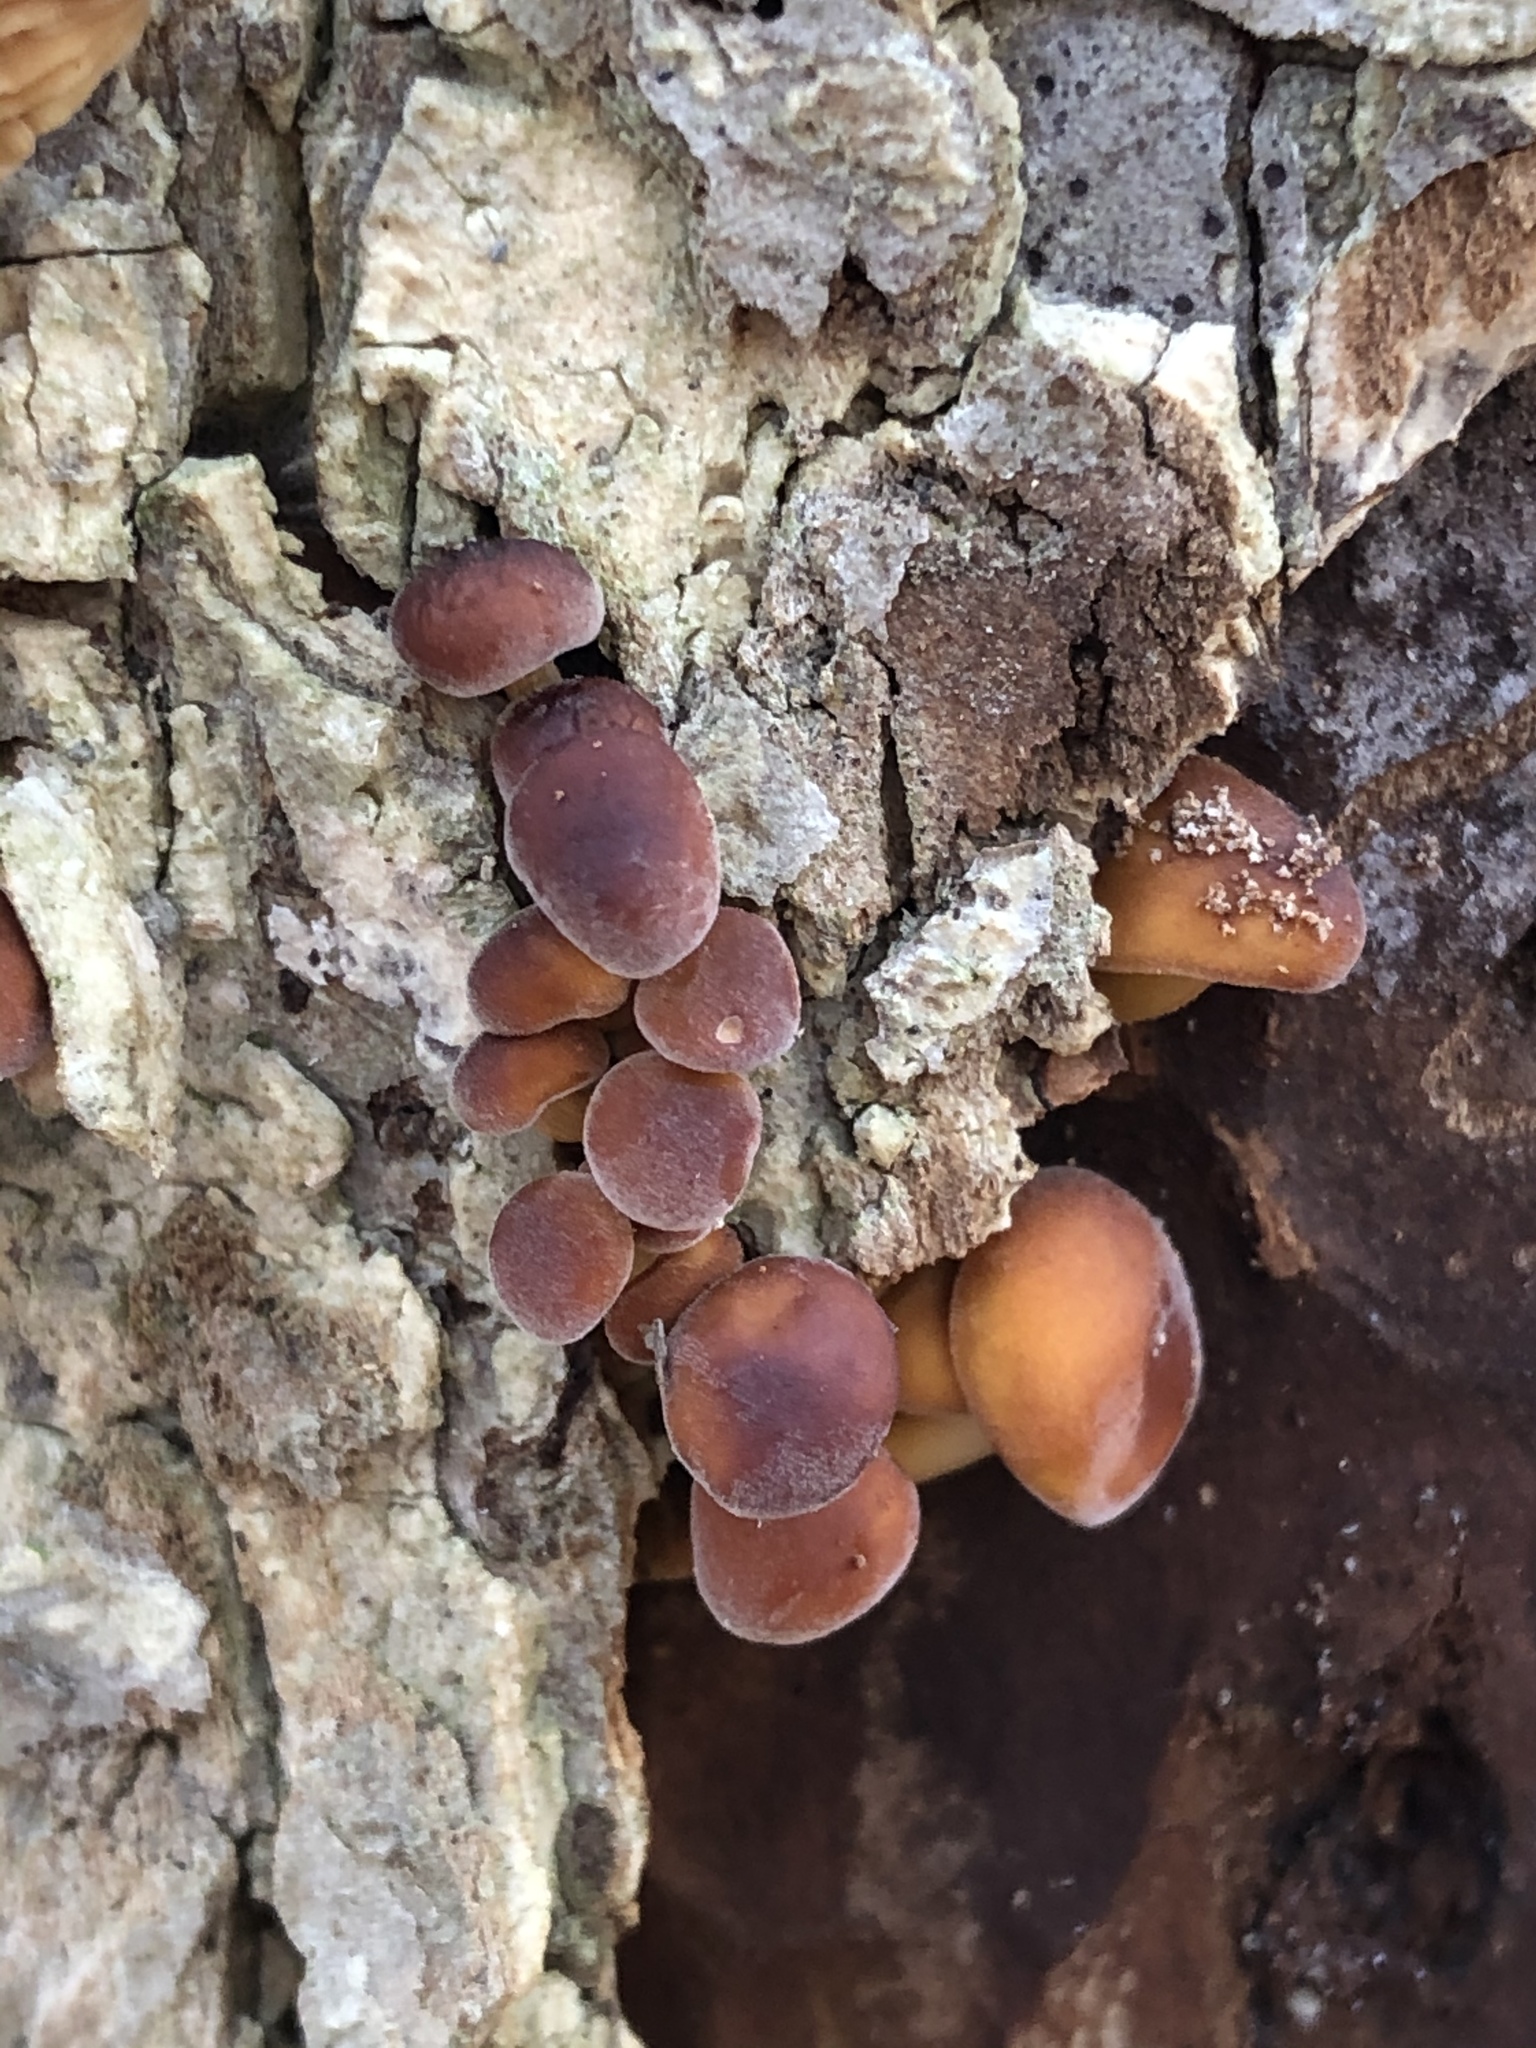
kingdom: Fungi
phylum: Basidiomycota
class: Agaricomycetes
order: Agaricales
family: Physalacriaceae
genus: Flammulina
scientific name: Flammulina velutipes
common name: Velvet shank
